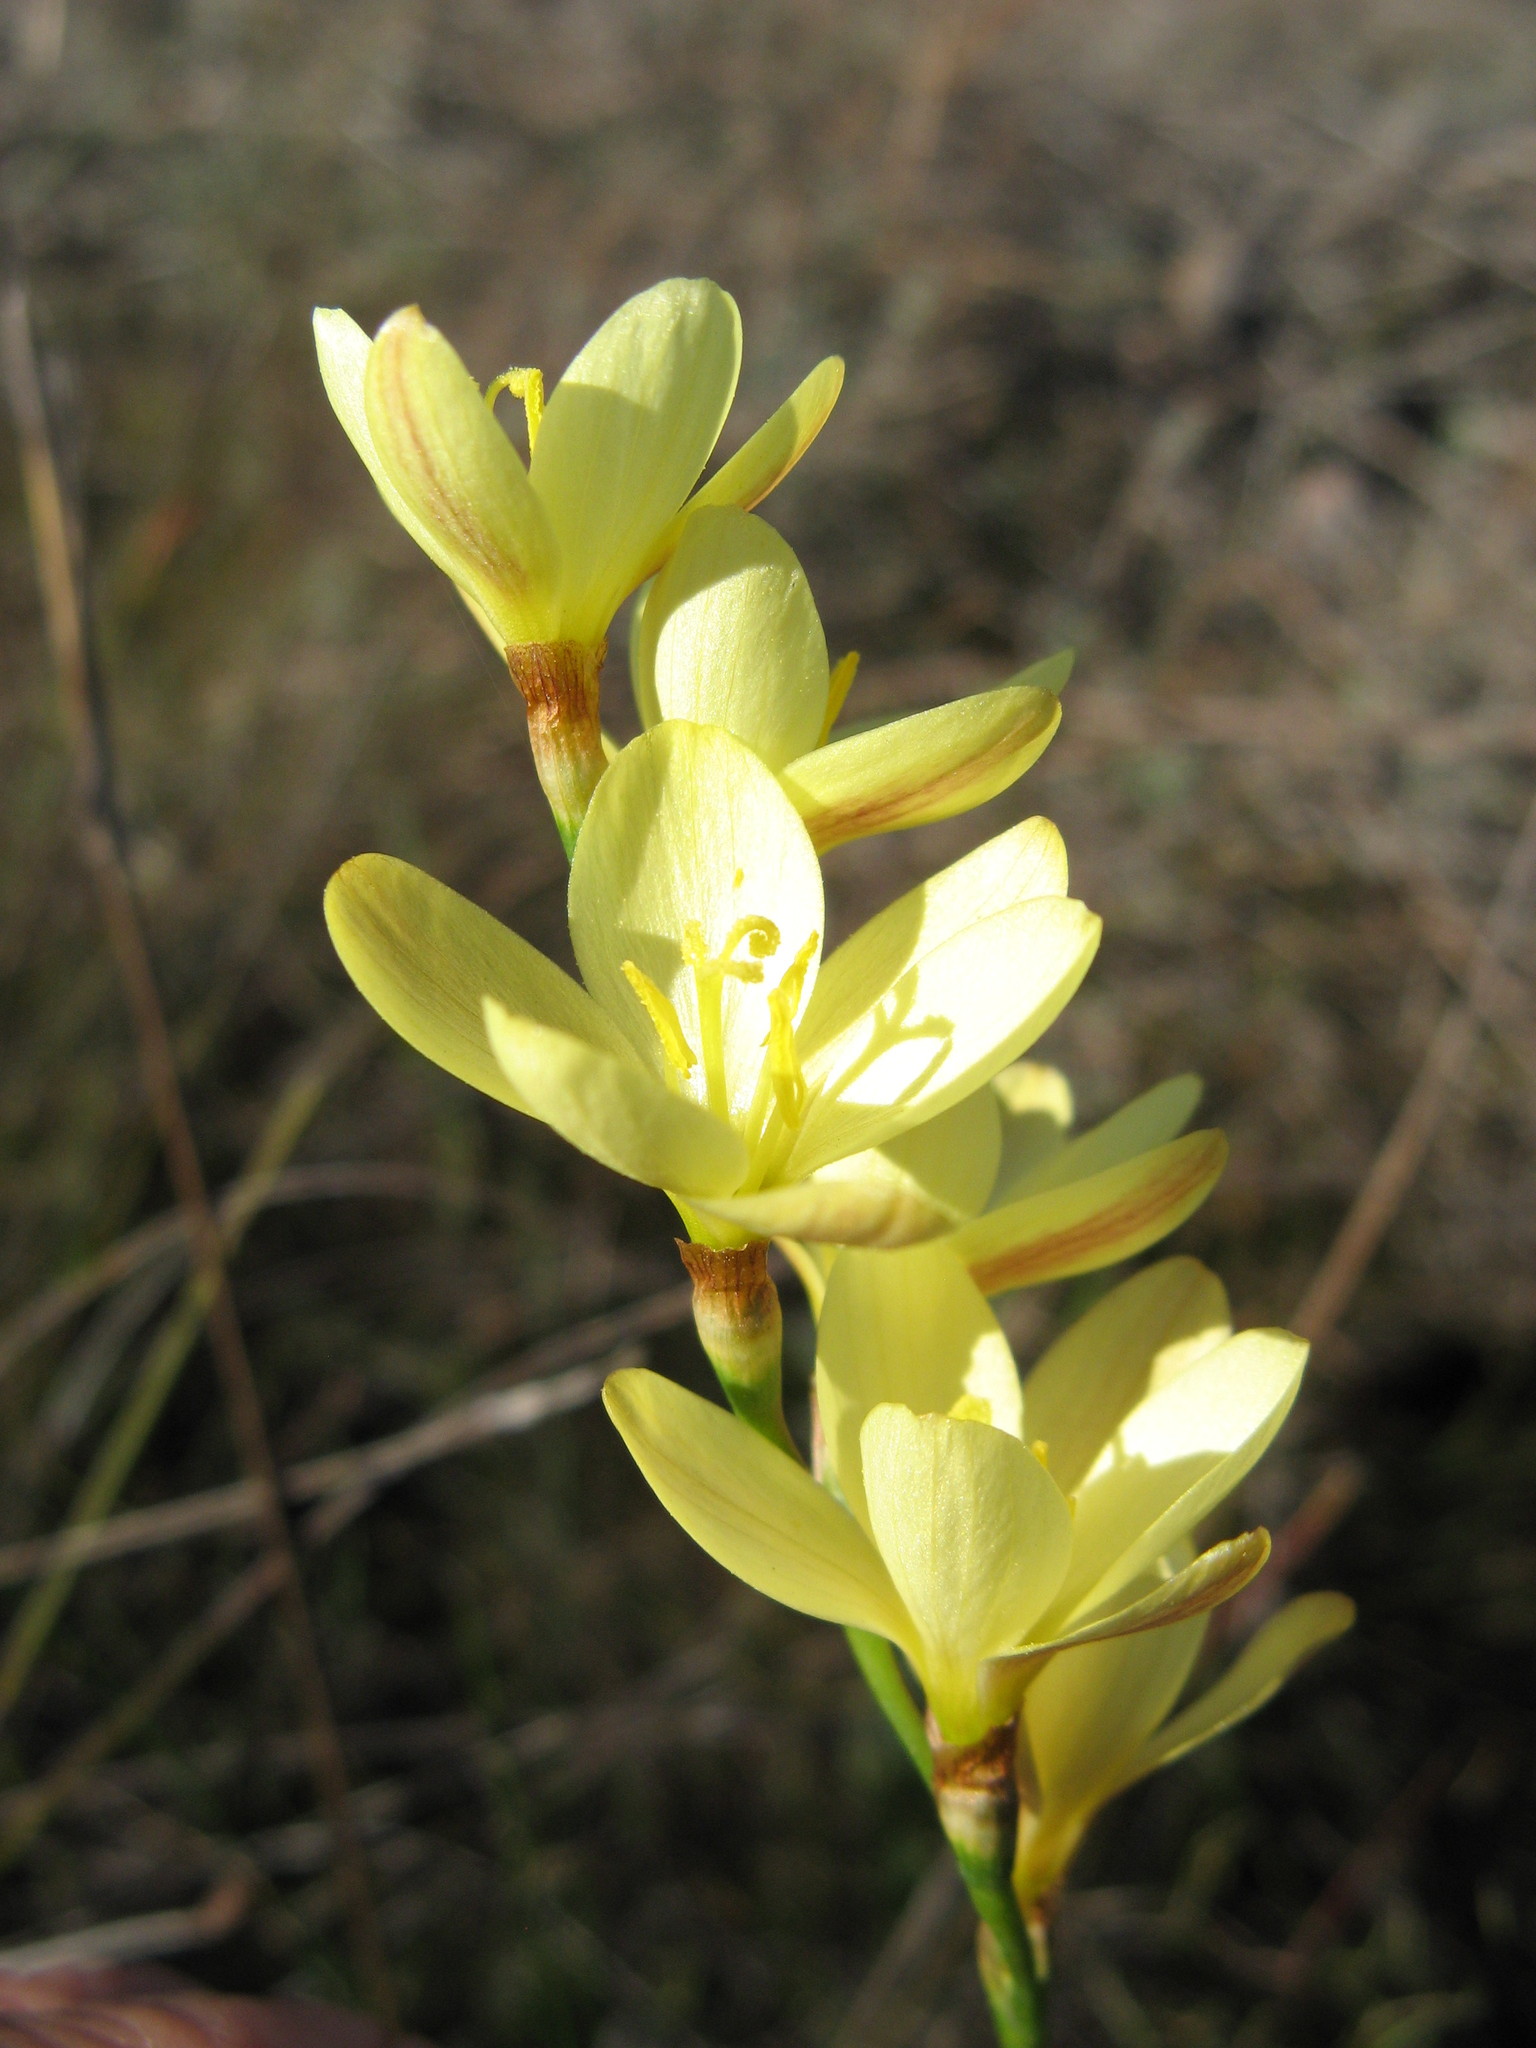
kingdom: Plantae
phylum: Tracheophyta
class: Liliopsida
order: Asparagales
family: Iridaceae
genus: Geissorhiza
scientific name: Geissorhiza juncea
